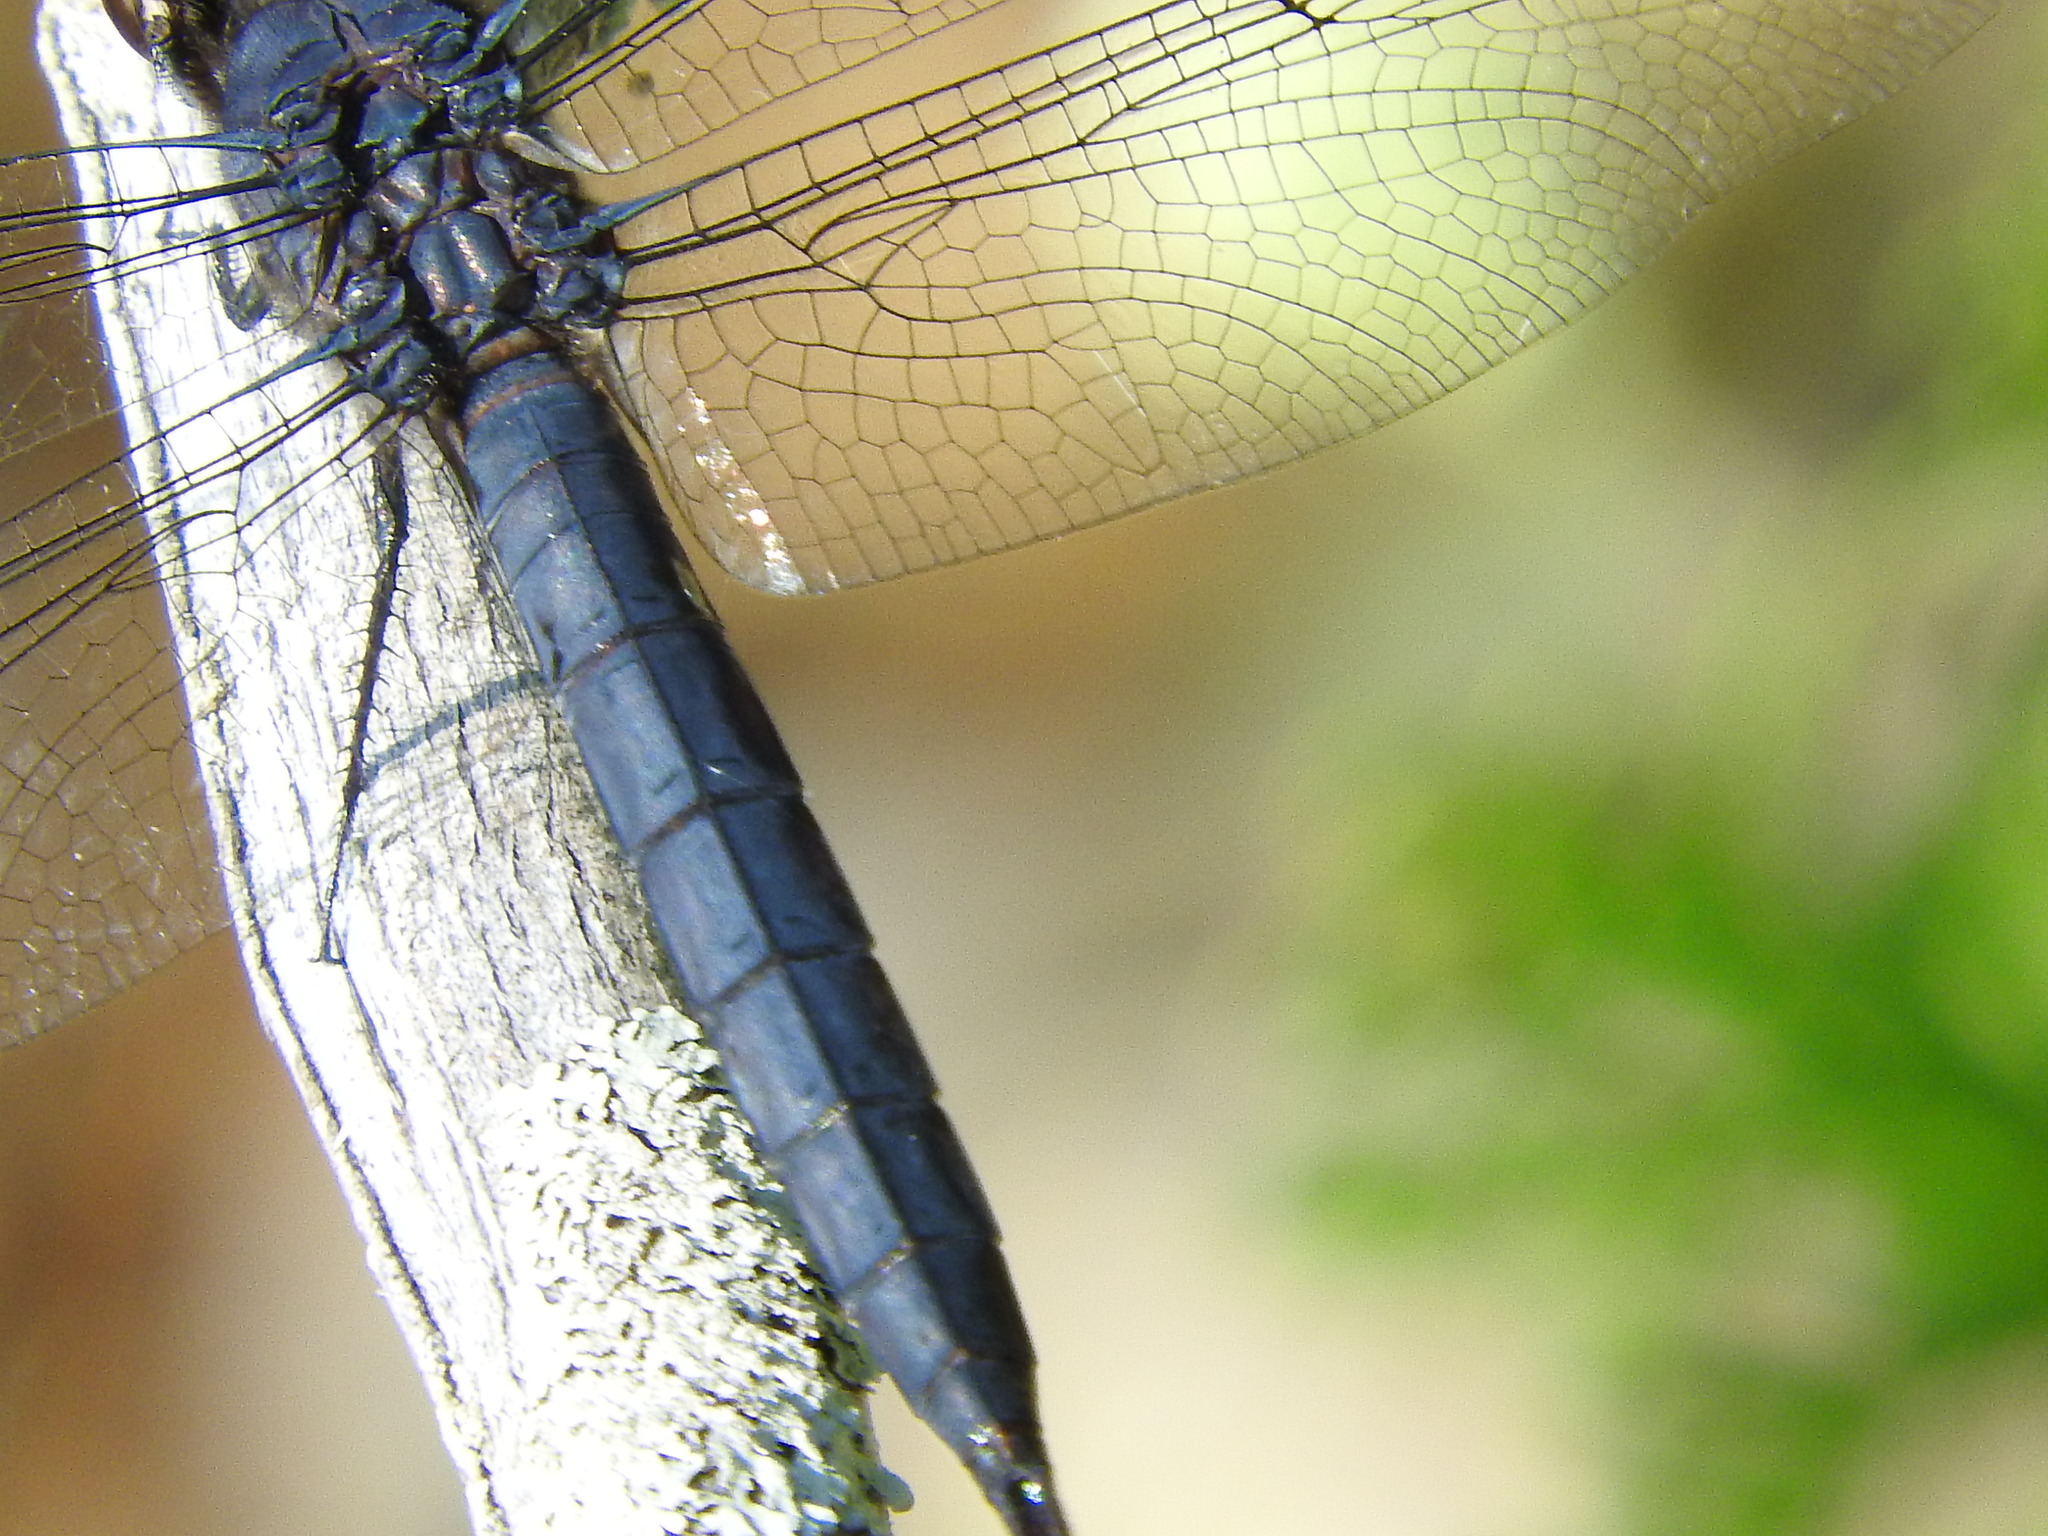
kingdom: Animalia
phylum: Arthropoda
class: Insecta
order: Odonata
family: Libellulidae
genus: Libellula
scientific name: Libellula incesta
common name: Slaty skimmer
